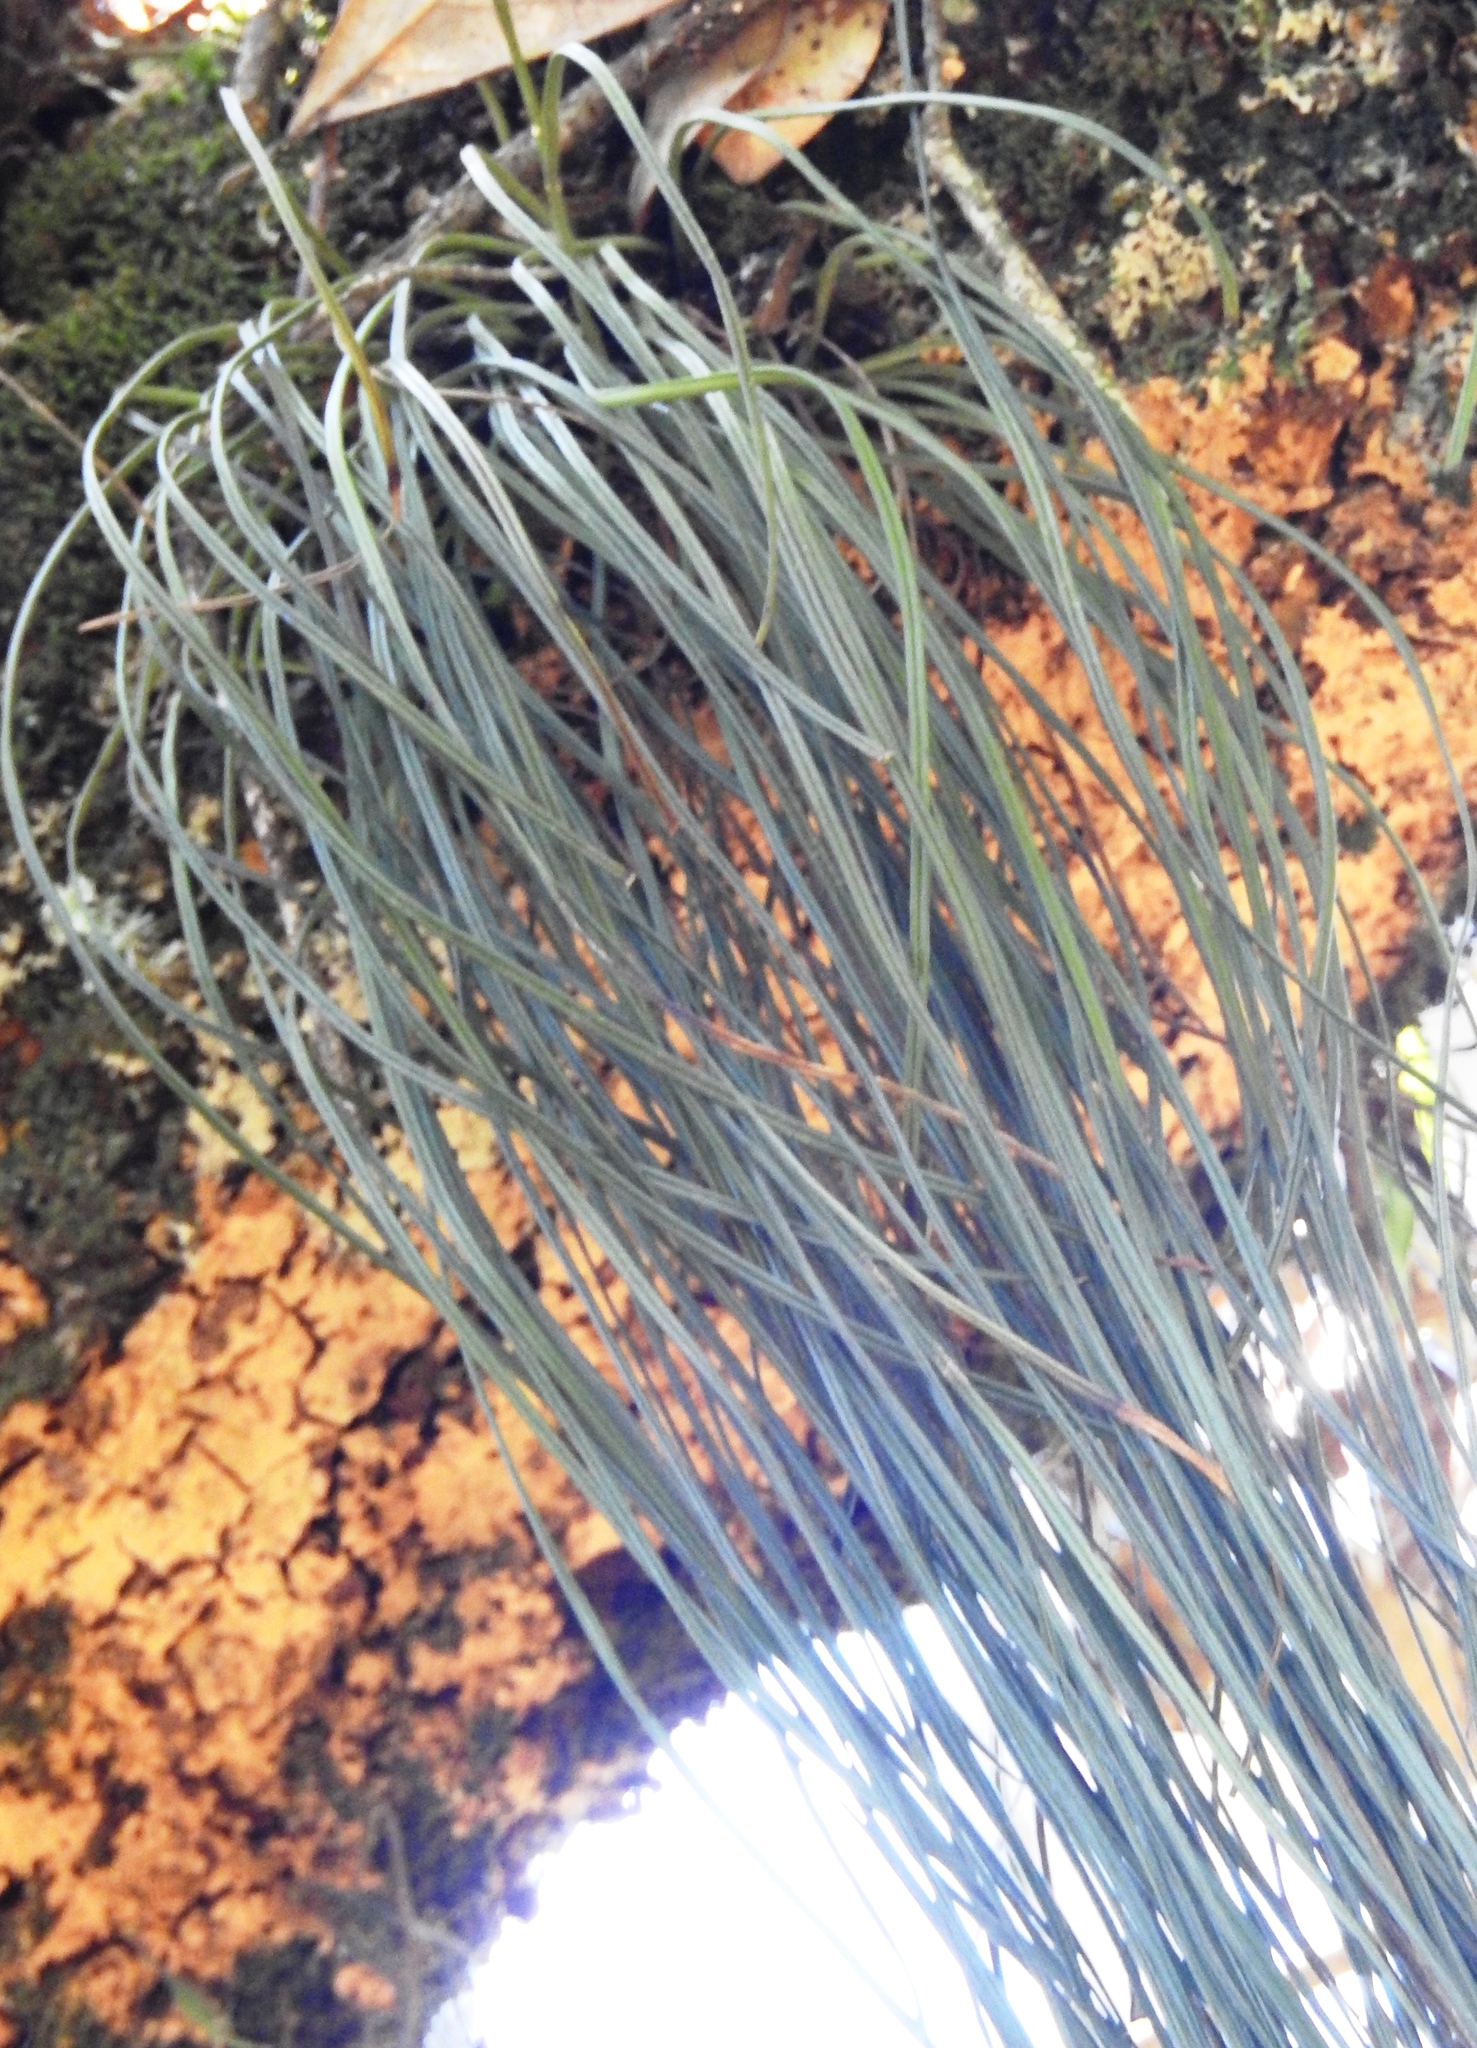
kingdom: Plantae
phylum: Tracheophyta
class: Polypodiopsida
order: Polypodiales
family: Pteridaceae
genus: Vittaria
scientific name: Vittaria lineata
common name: Shoestring fern
